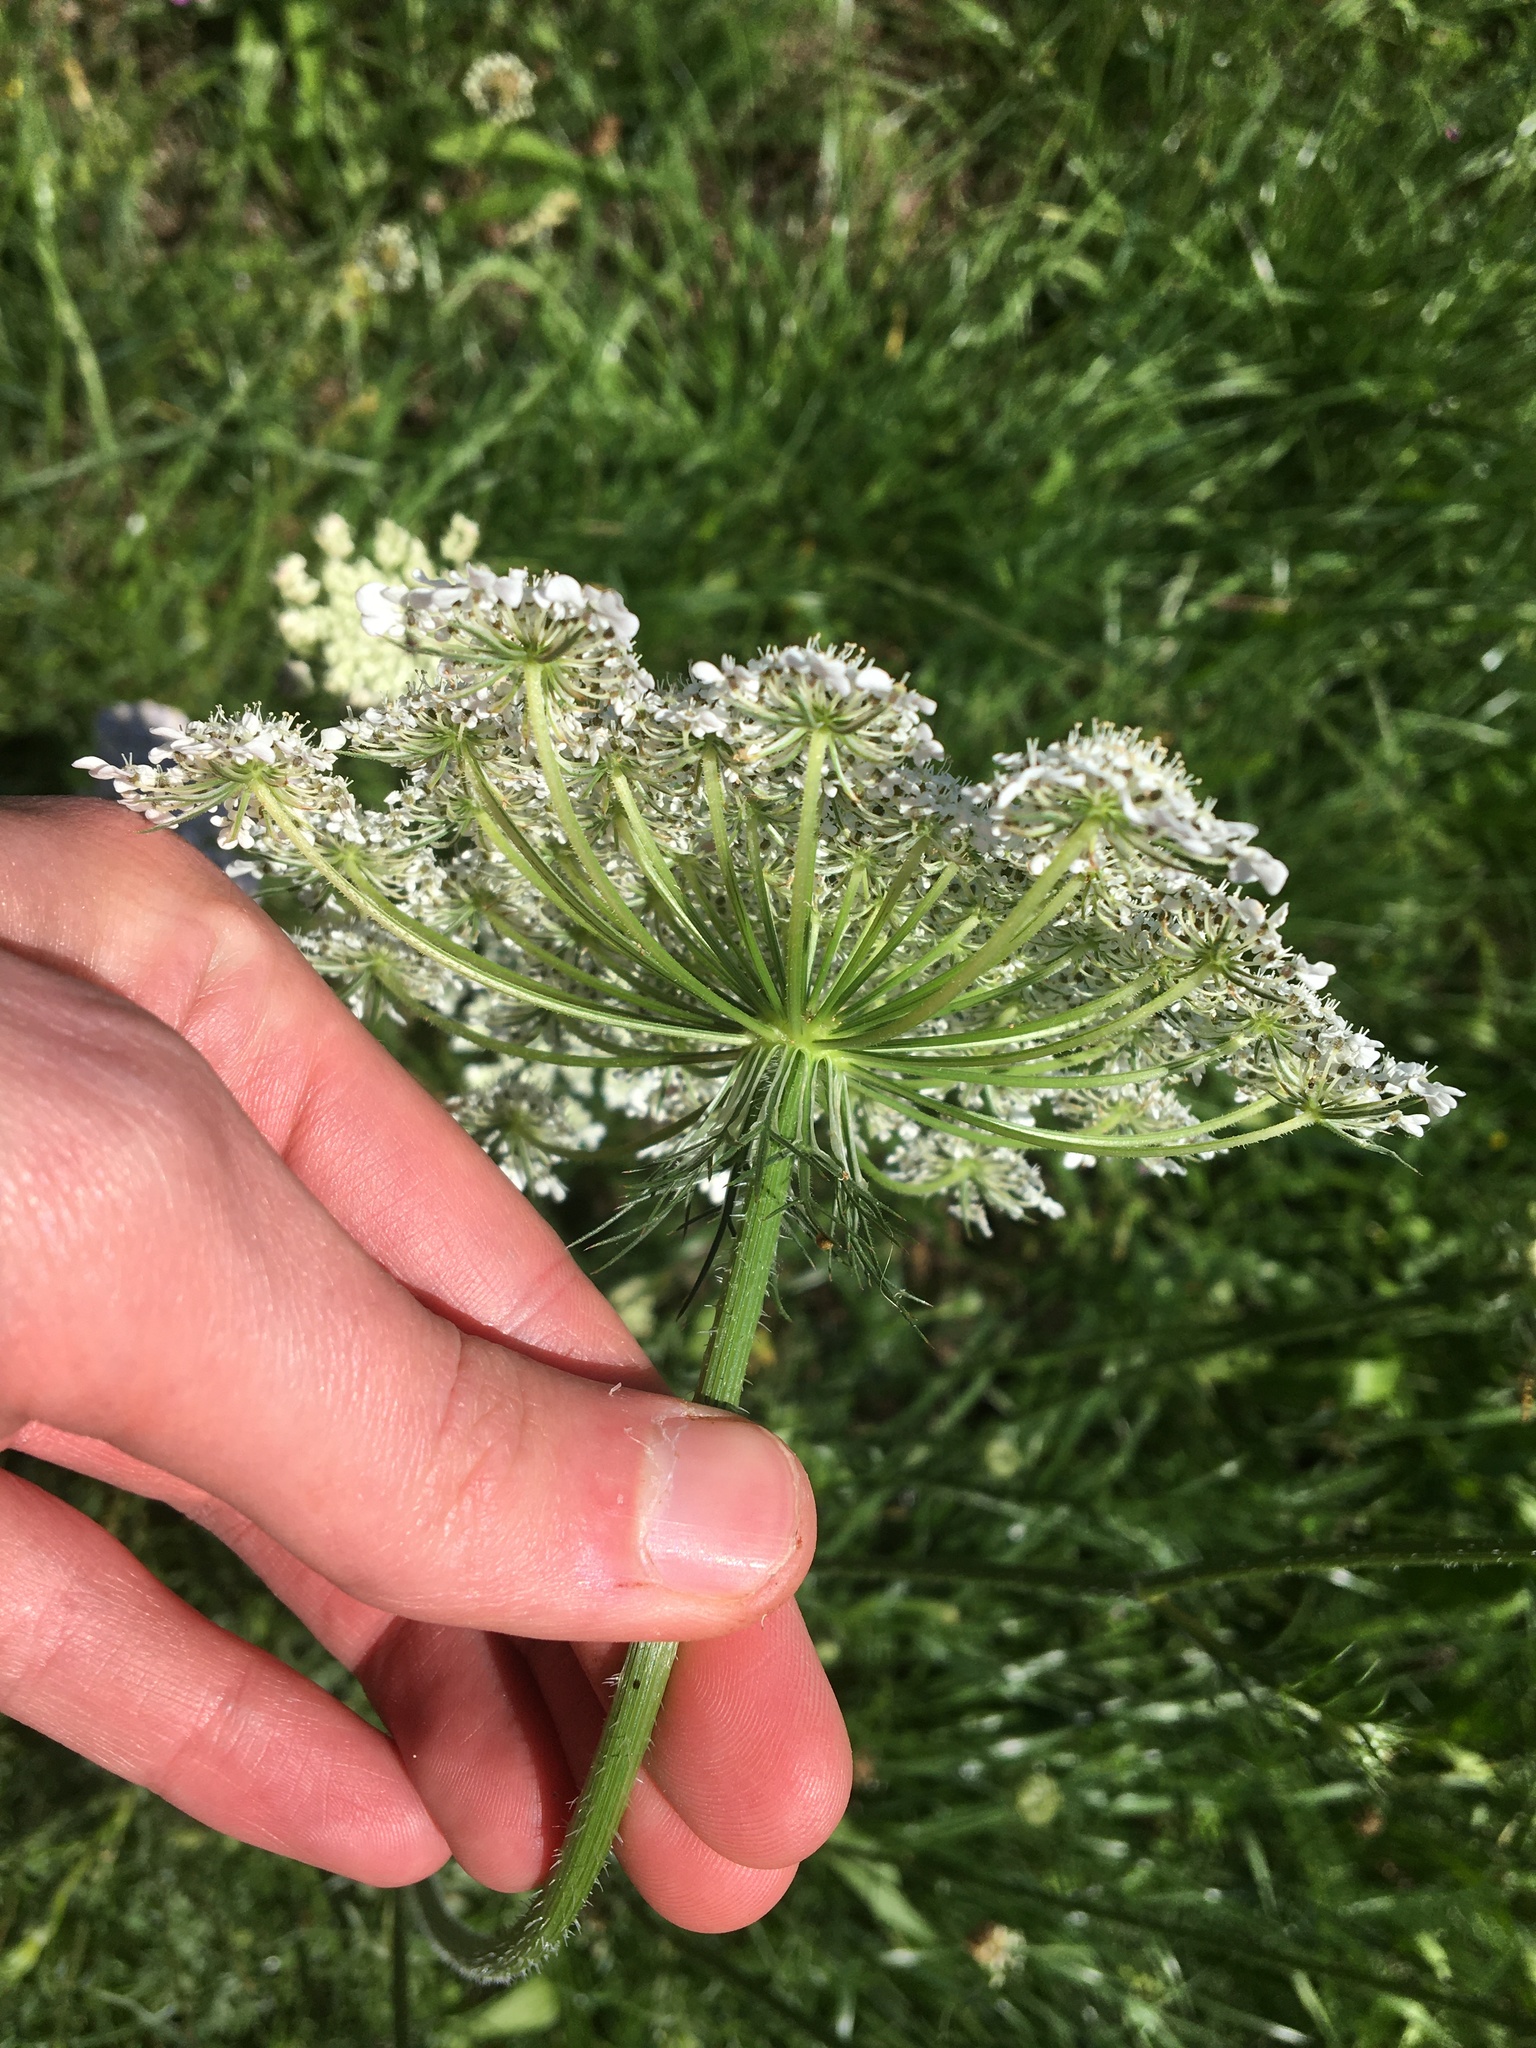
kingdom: Plantae
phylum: Tracheophyta
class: Magnoliopsida
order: Apiales
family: Apiaceae
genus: Daucus
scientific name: Daucus carota
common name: Wild carrot
